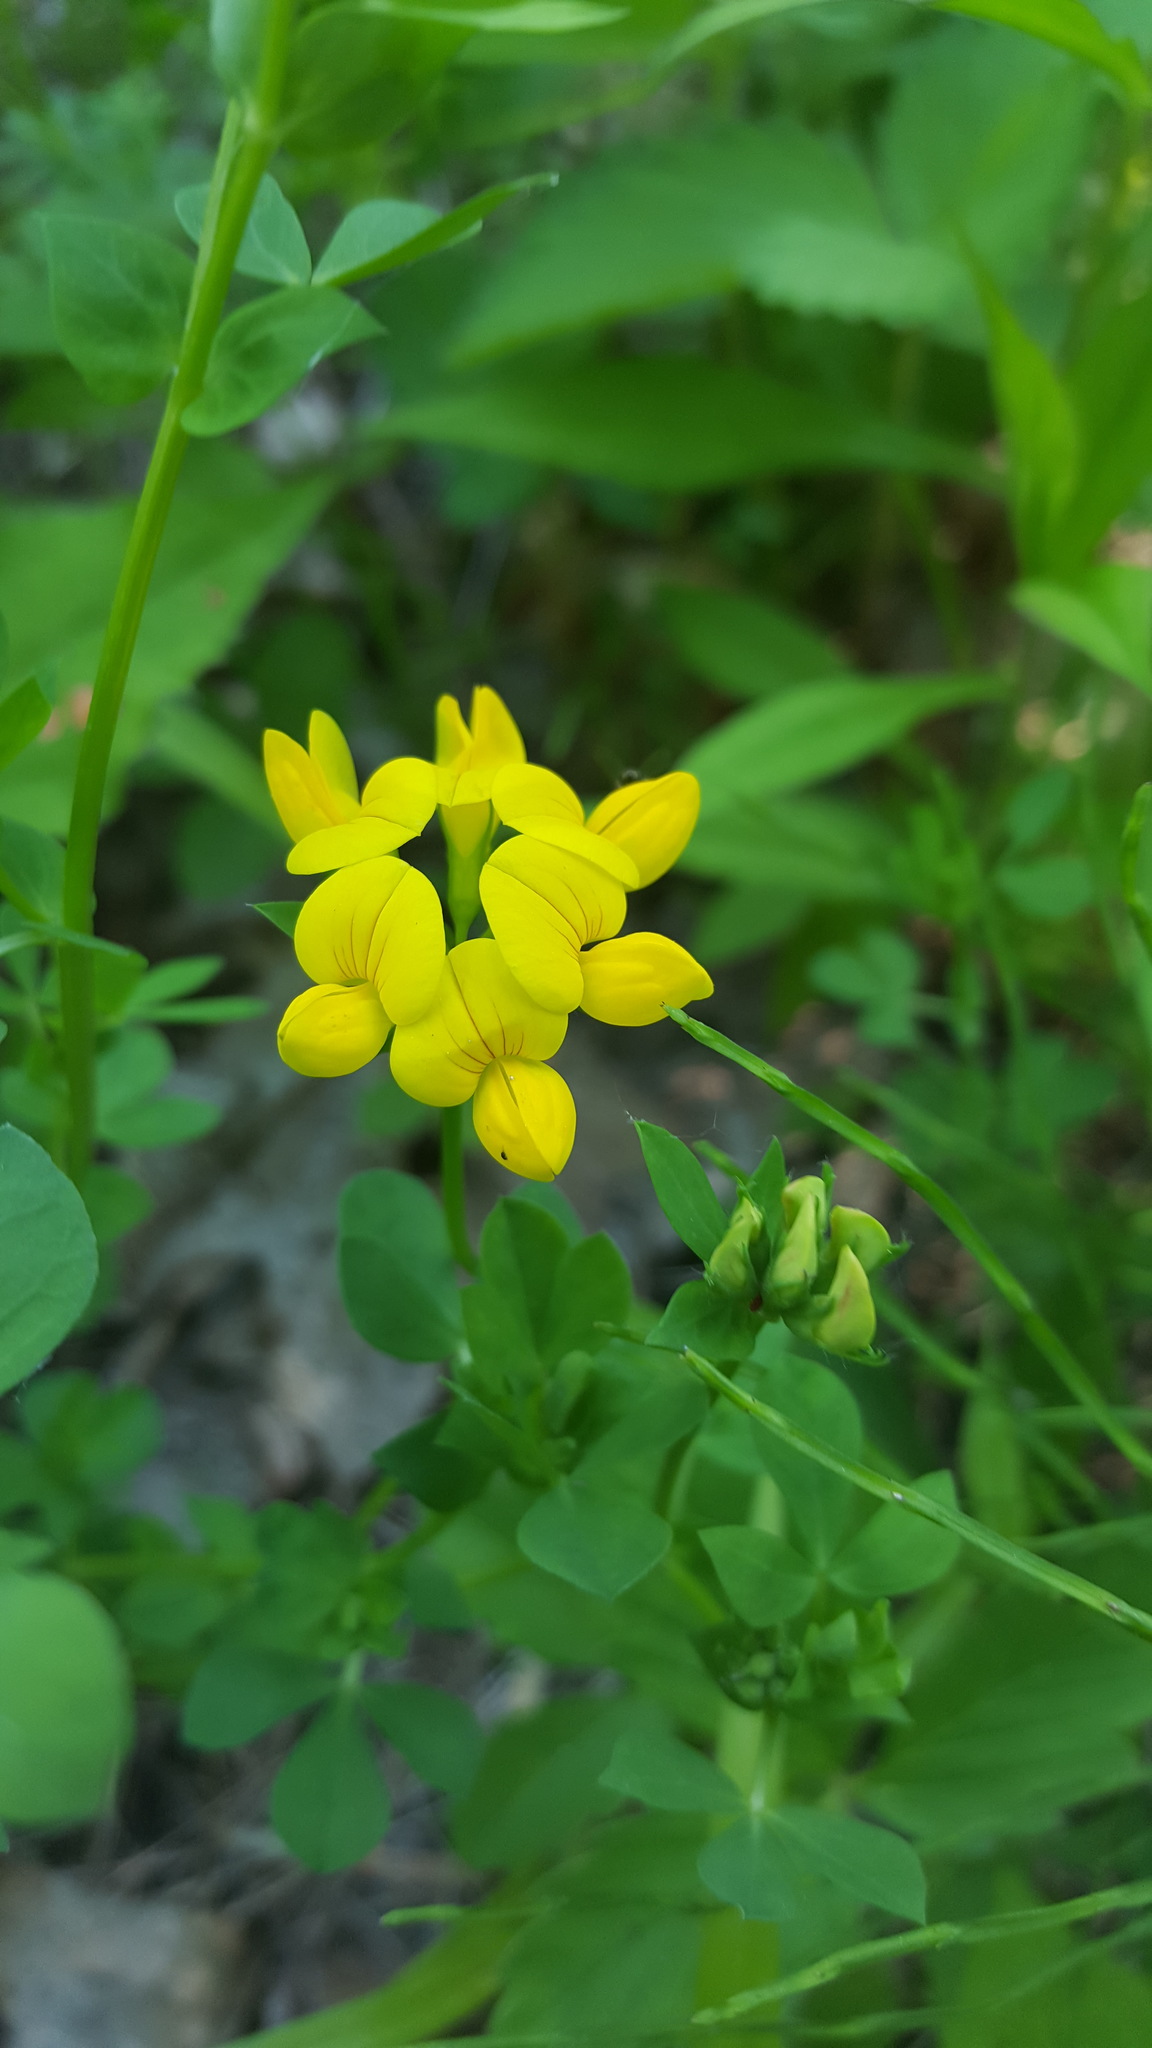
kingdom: Plantae
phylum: Tracheophyta
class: Magnoliopsida
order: Fabales
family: Fabaceae
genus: Lotus
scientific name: Lotus corniculatus
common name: Common bird's-foot-trefoil
